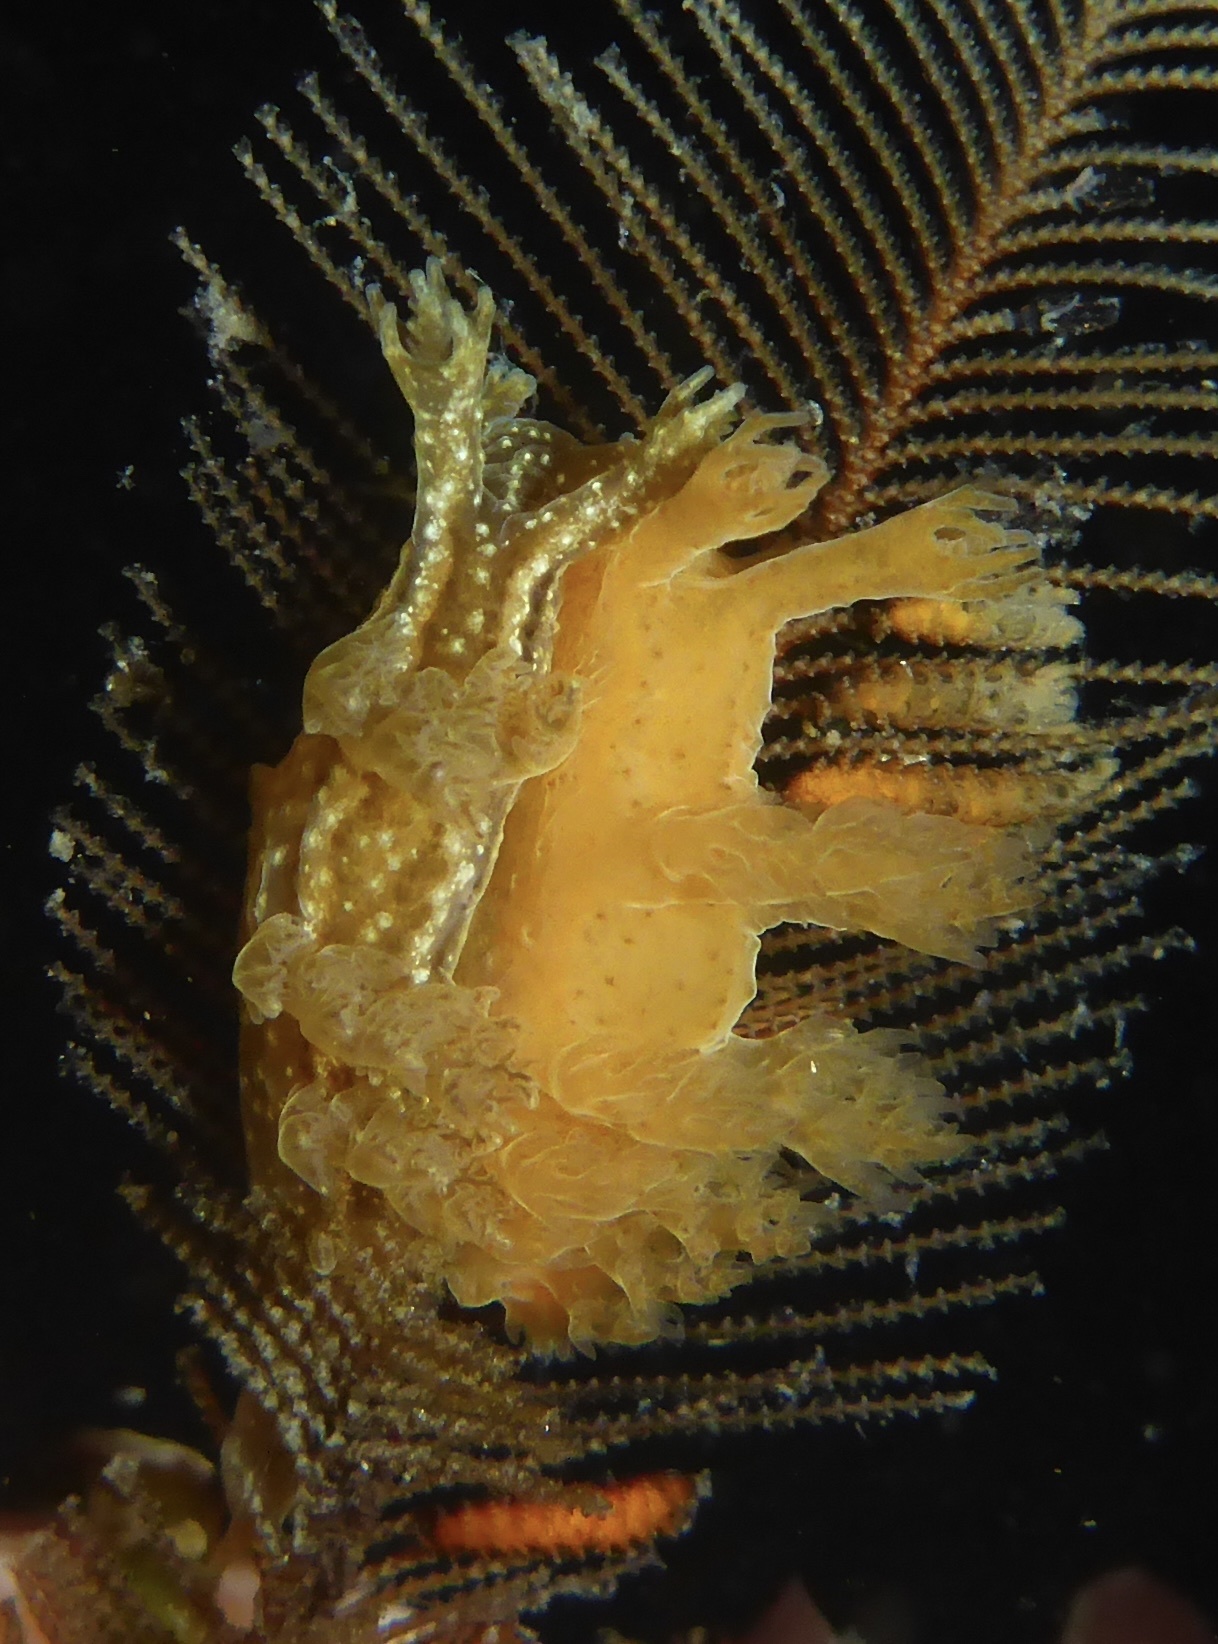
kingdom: Animalia
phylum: Mollusca
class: Gastropoda
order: Nudibranchia
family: Dendronotidae
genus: Dendronotus
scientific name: Dendronotus subramosus
